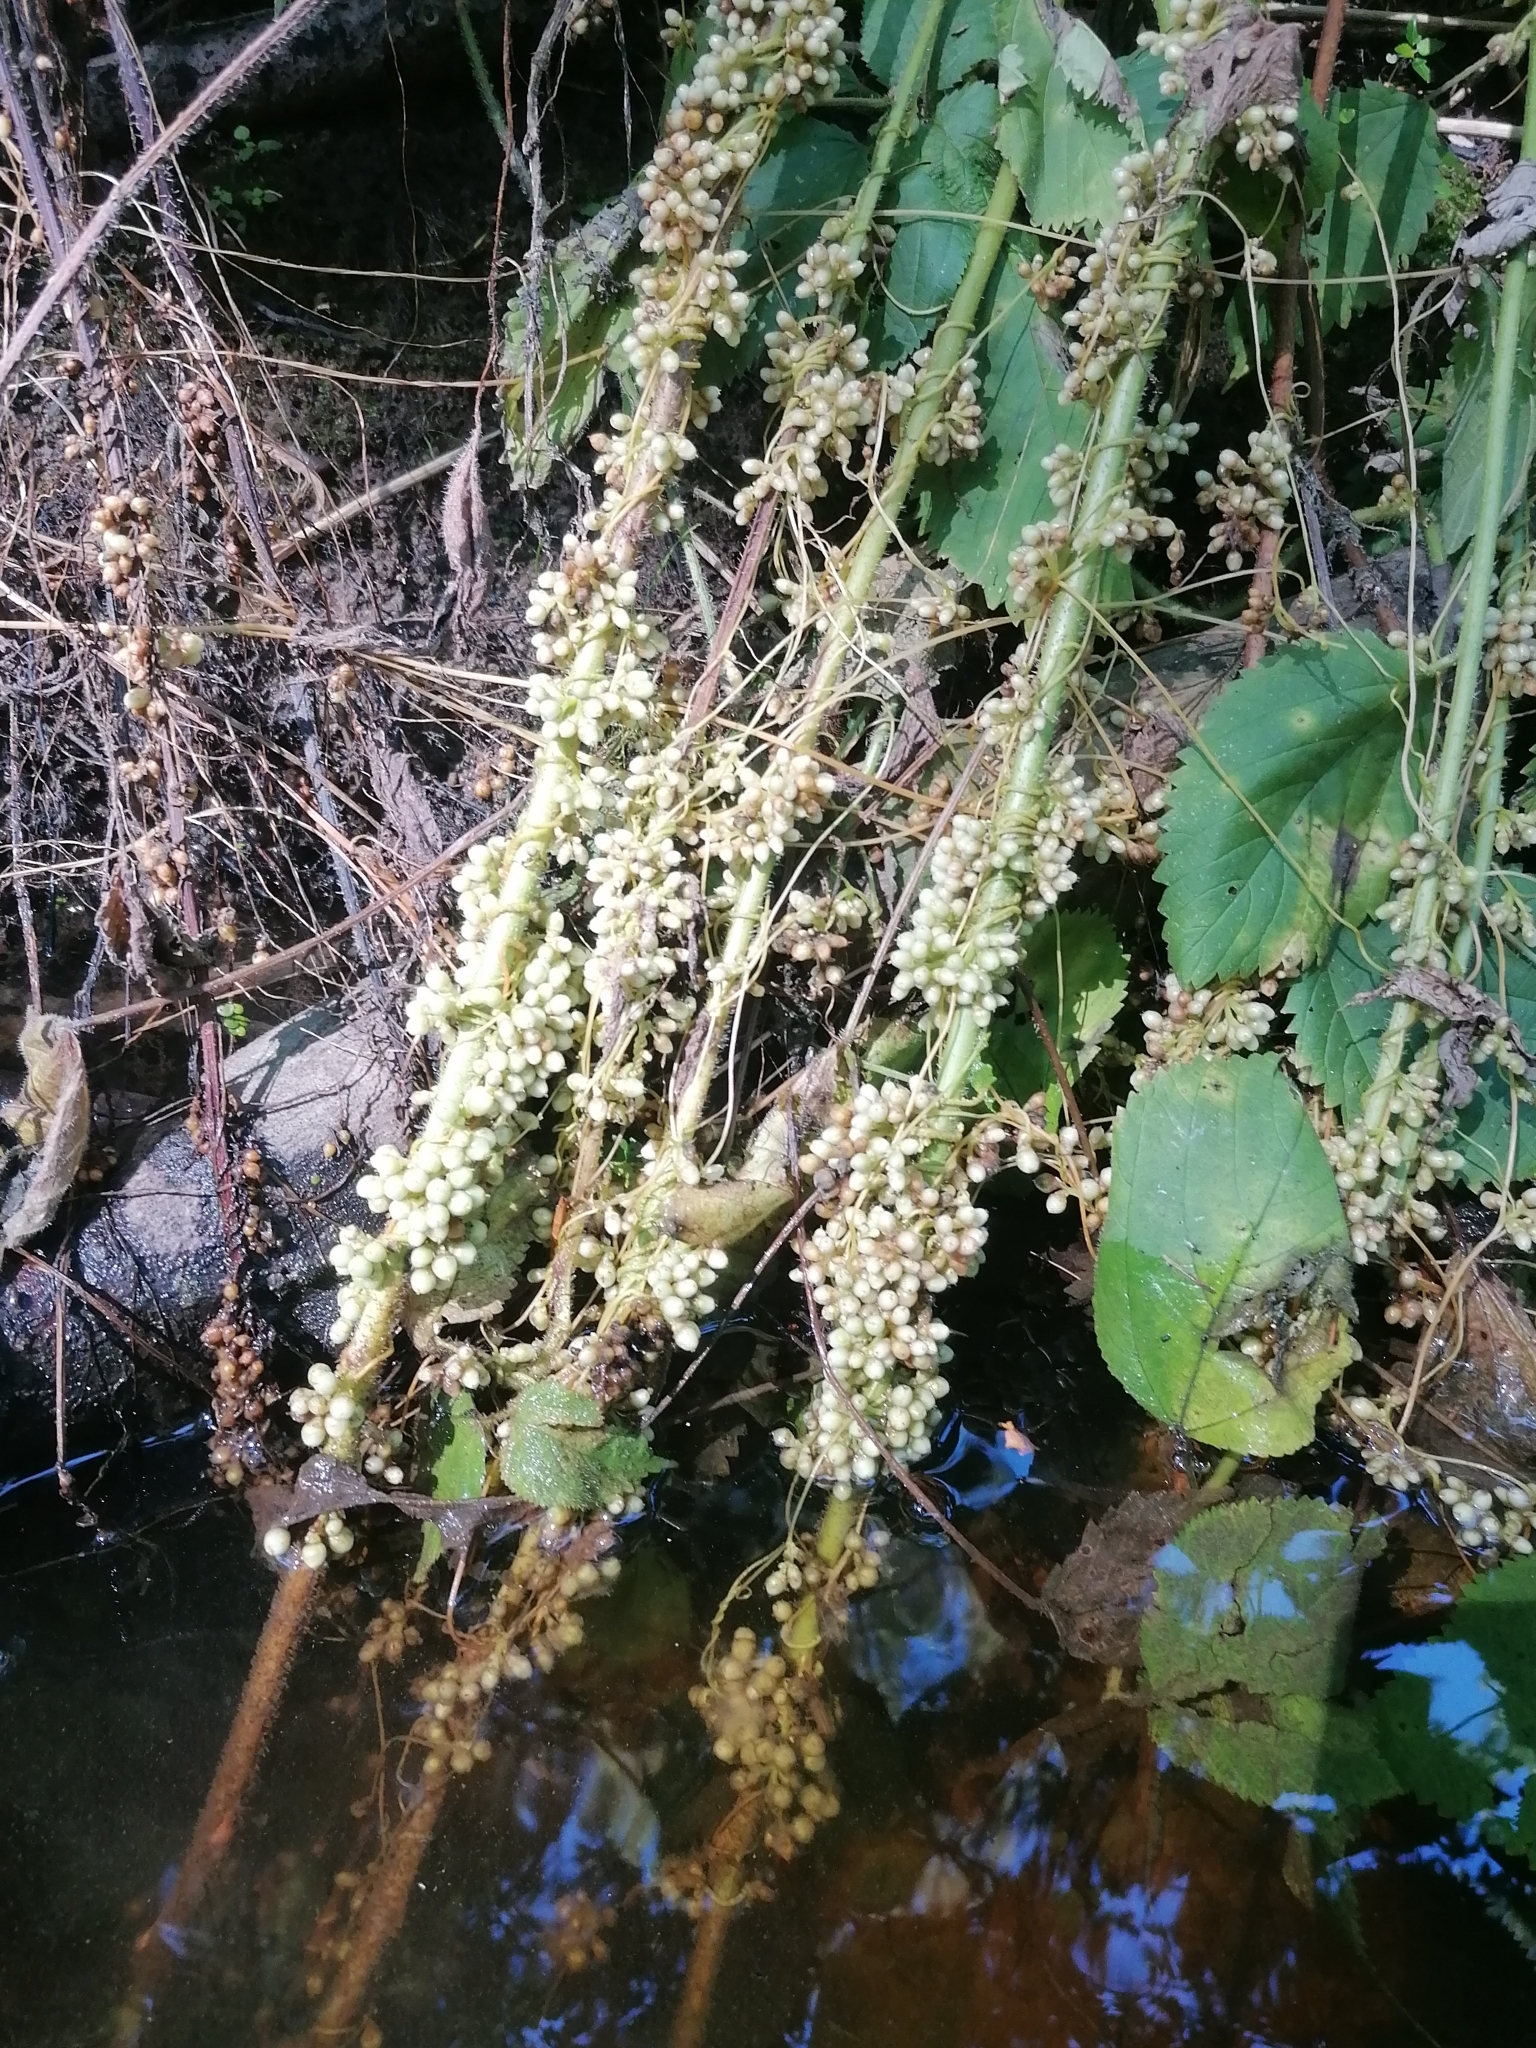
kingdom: Plantae
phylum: Tracheophyta
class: Magnoliopsida
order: Solanales
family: Convolvulaceae
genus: Cuscuta
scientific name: Cuscuta gronovii
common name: Common dodder
